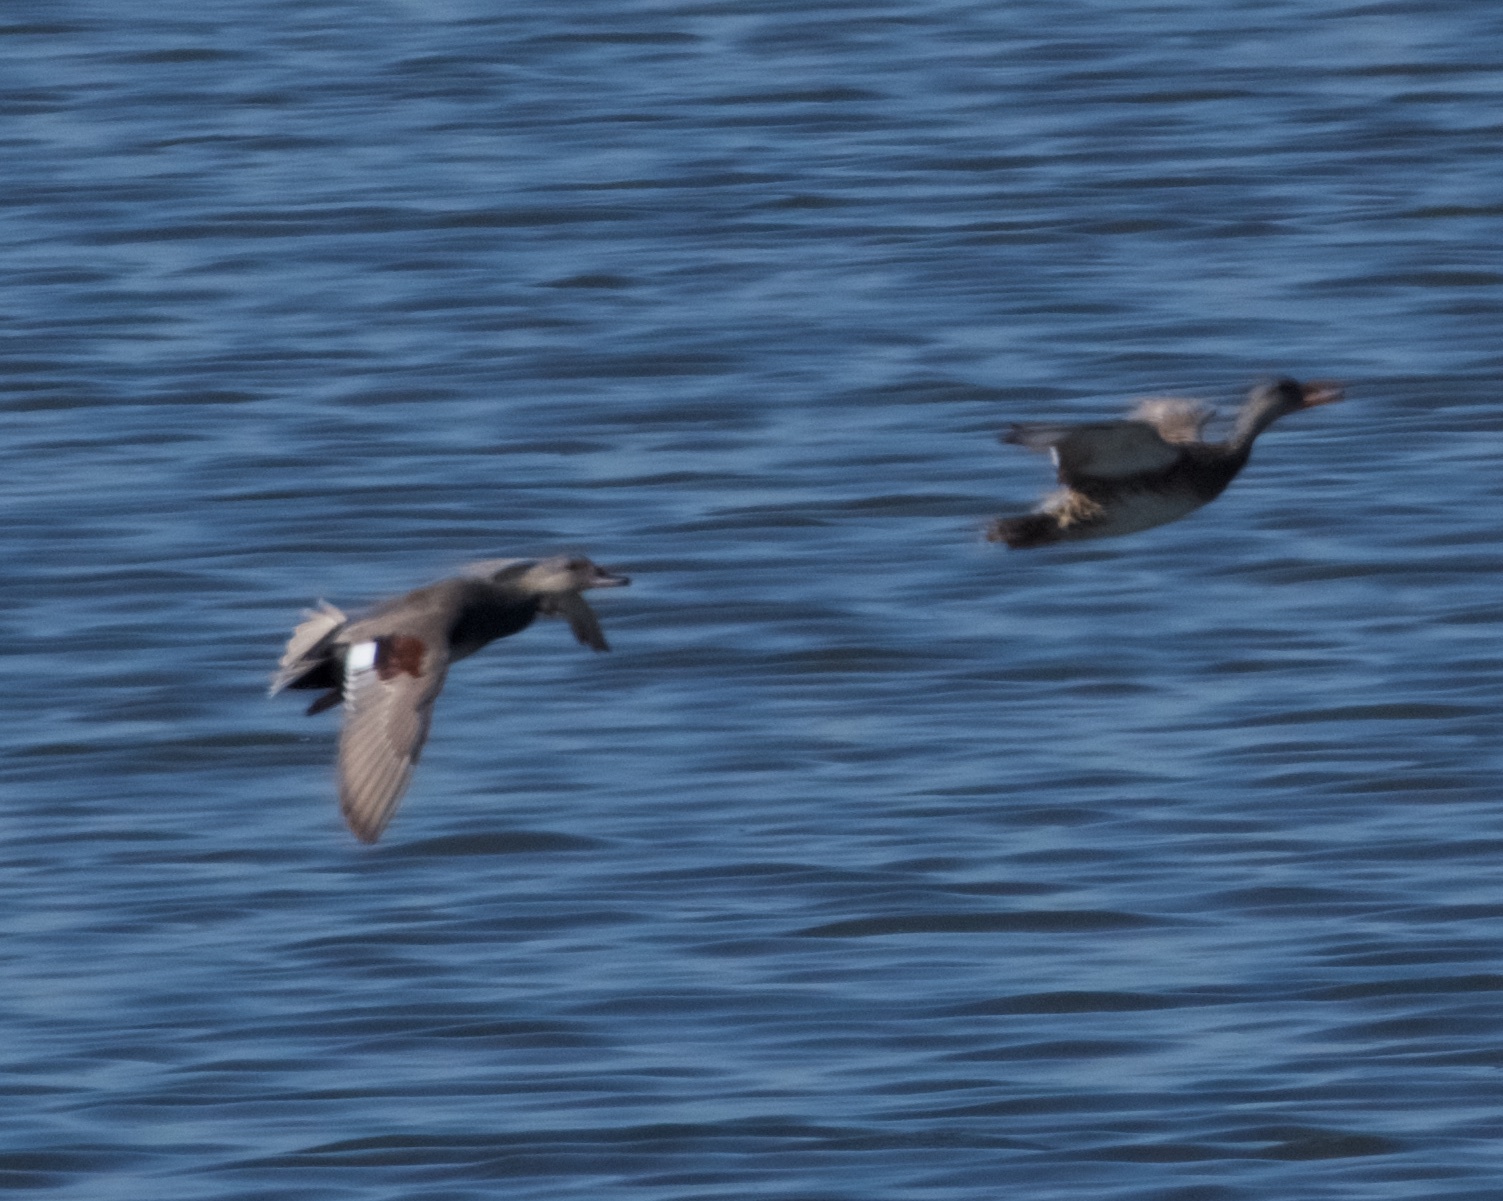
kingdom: Animalia
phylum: Chordata
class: Aves
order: Anseriformes
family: Anatidae
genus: Mareca
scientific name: Mareca strepera
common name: Gadwall
